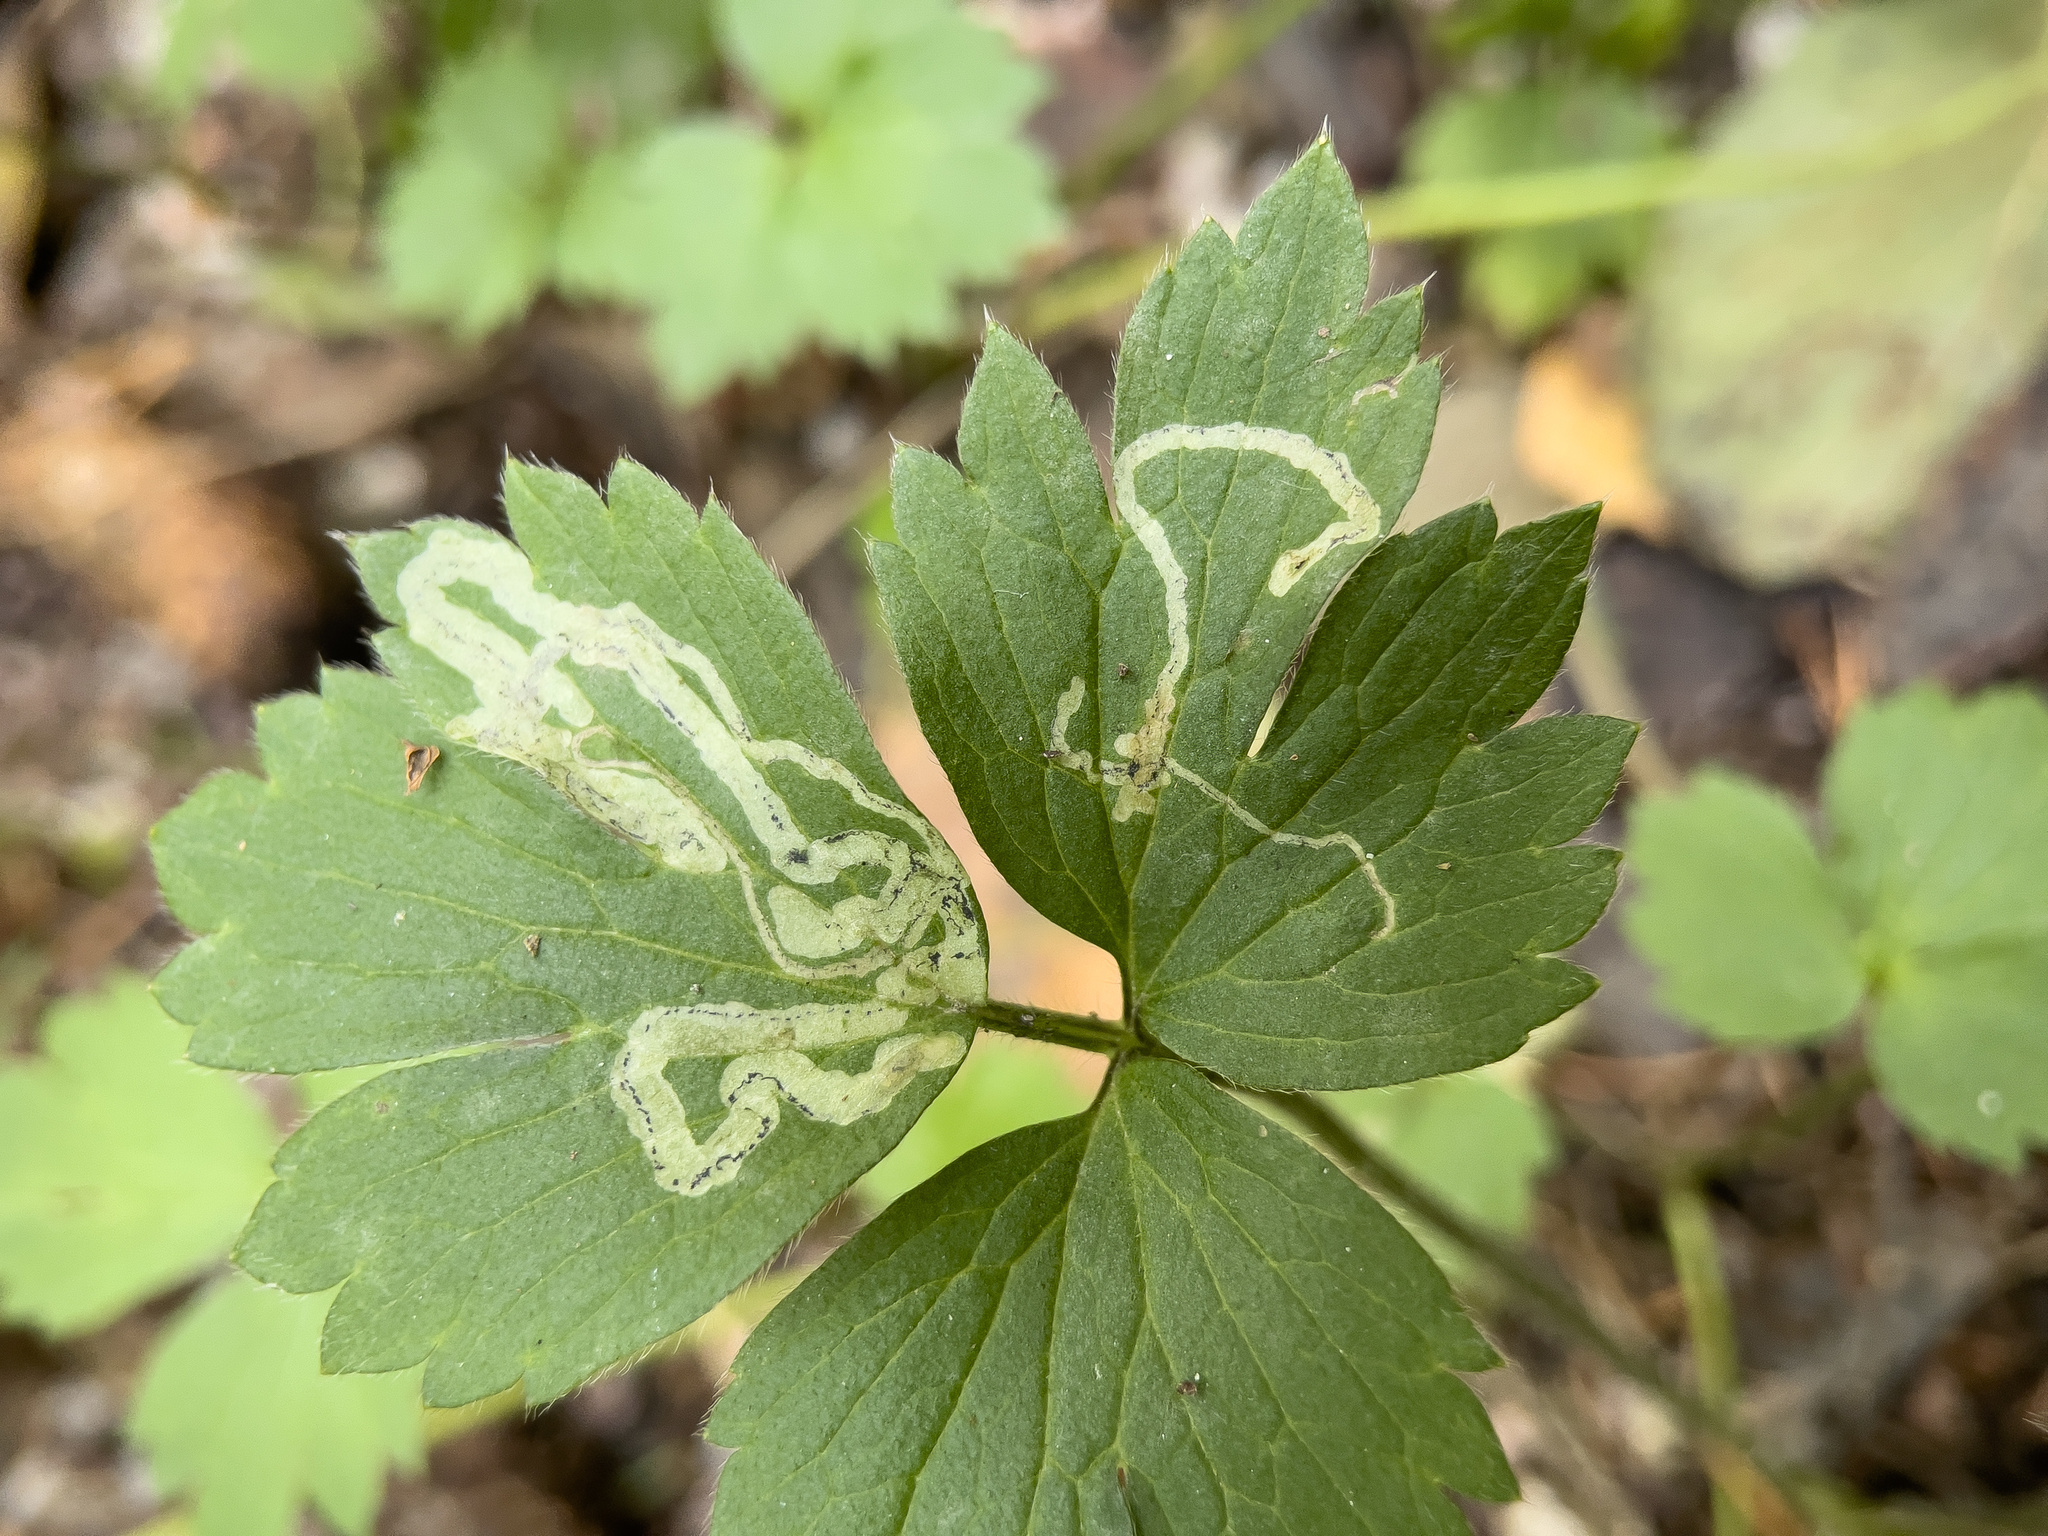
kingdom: Animalia
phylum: Arthropoda
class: Insecta
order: Diptera
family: Agromyzidae
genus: Phytomyza
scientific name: Phytomyza ranunculi
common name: Leaf-miner fly
